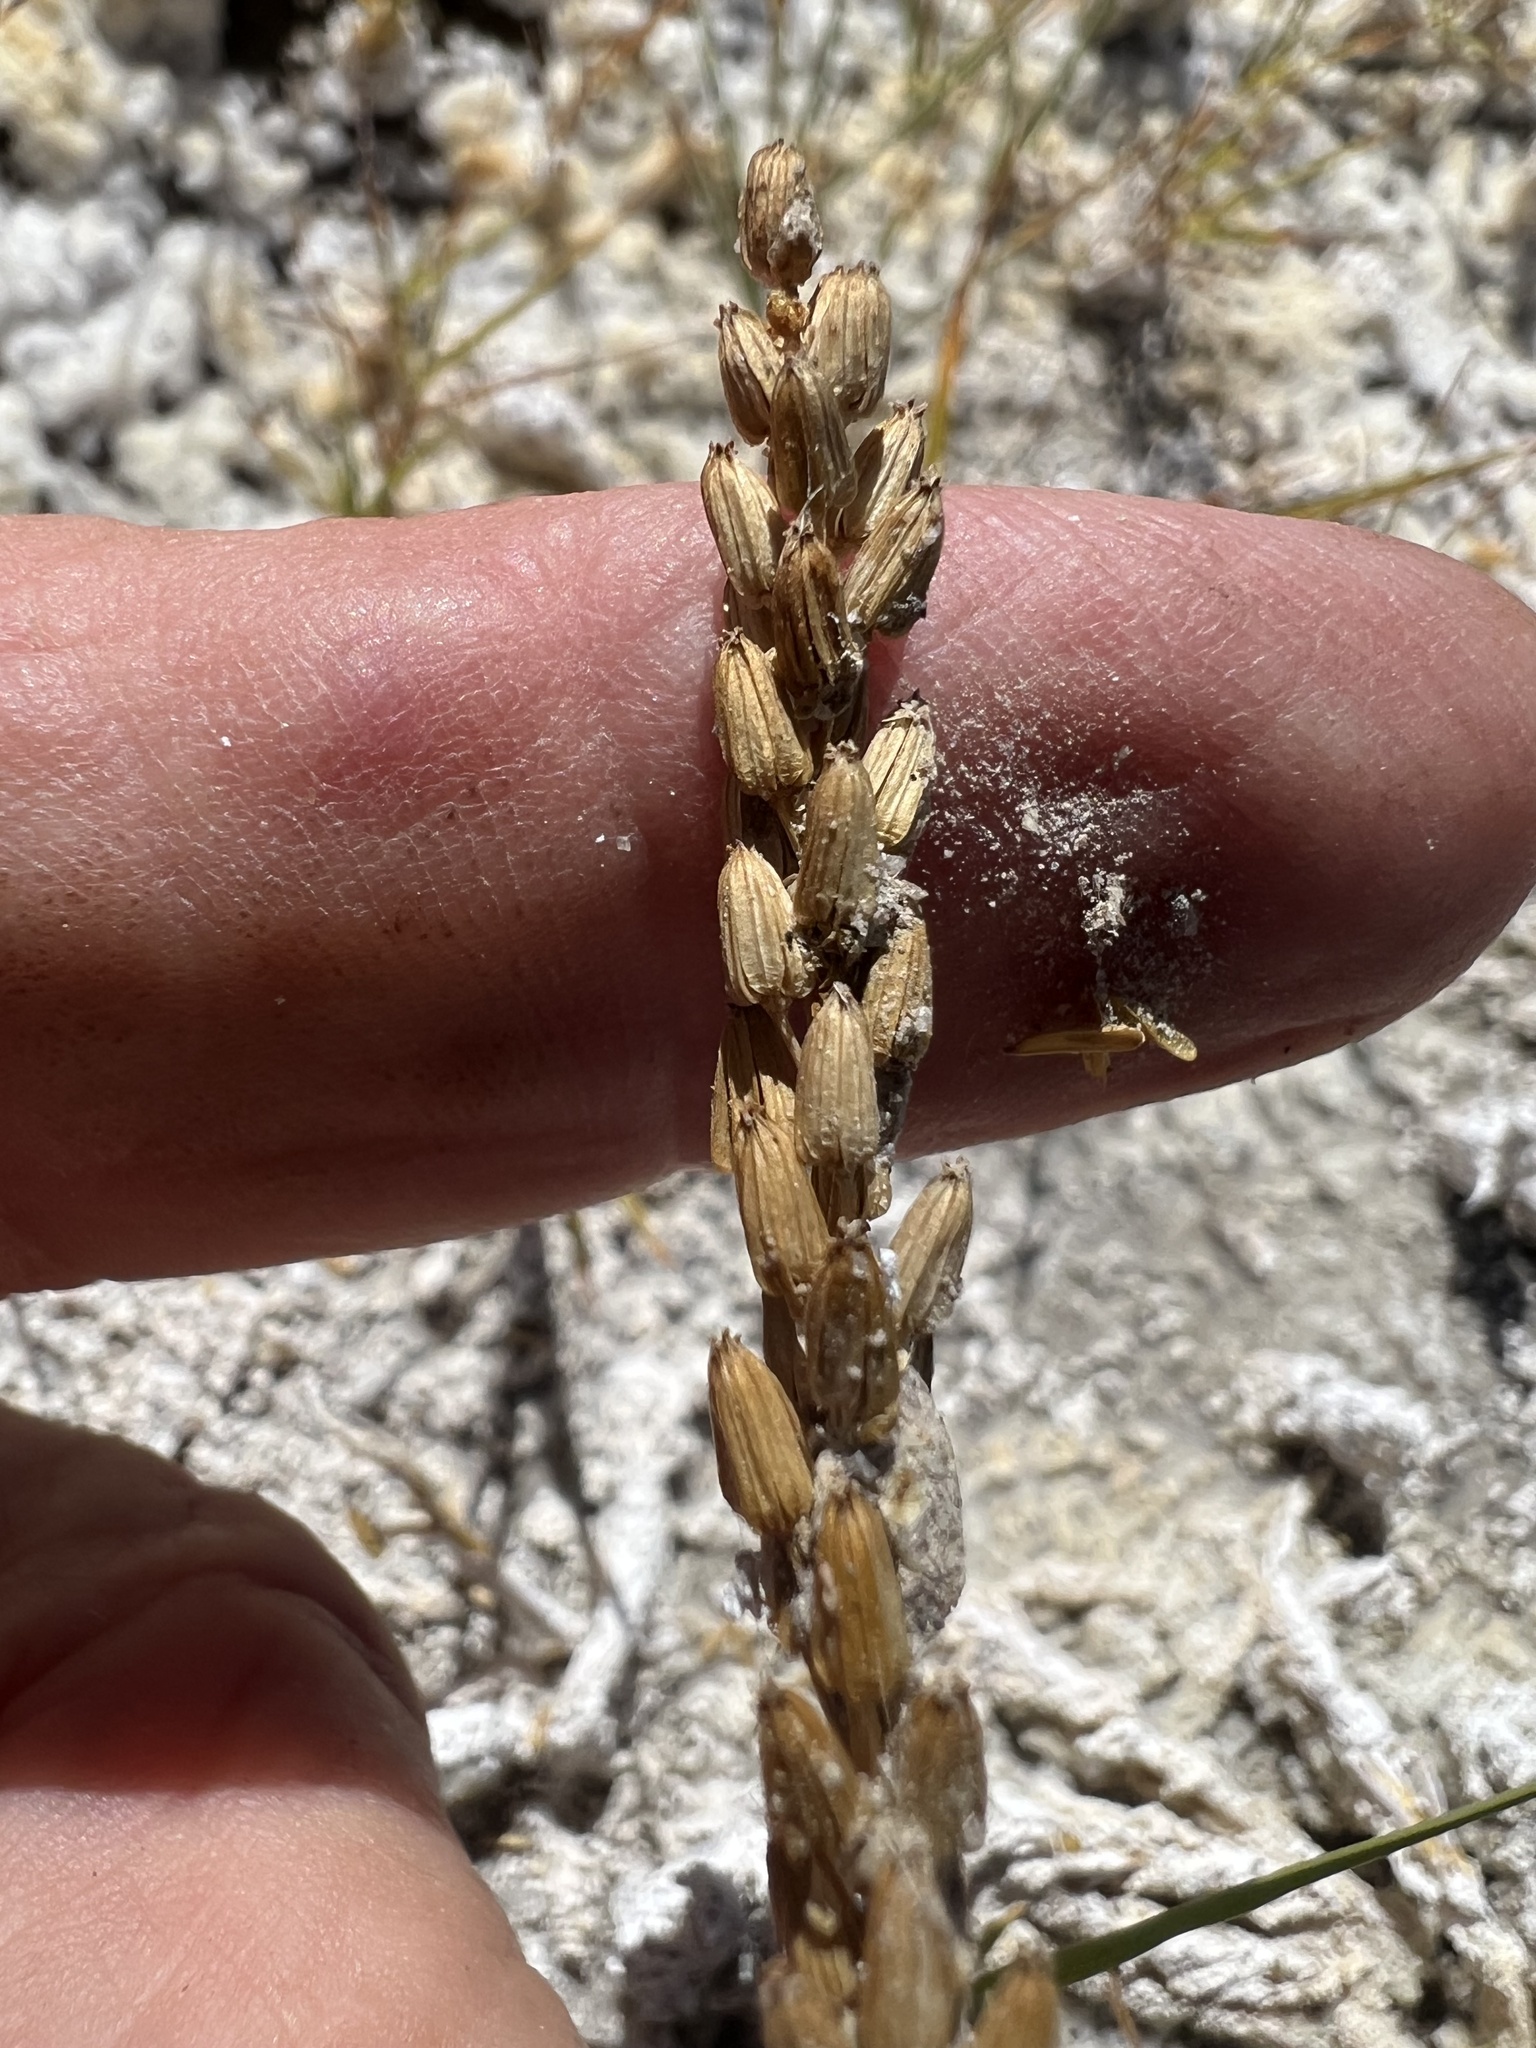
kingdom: Plantae
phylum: Tracheophyta
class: Liliopsida
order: Alismatales
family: Juncaginaceae
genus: Triglochin
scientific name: Triglochin maritima
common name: Sea arrowgrass
